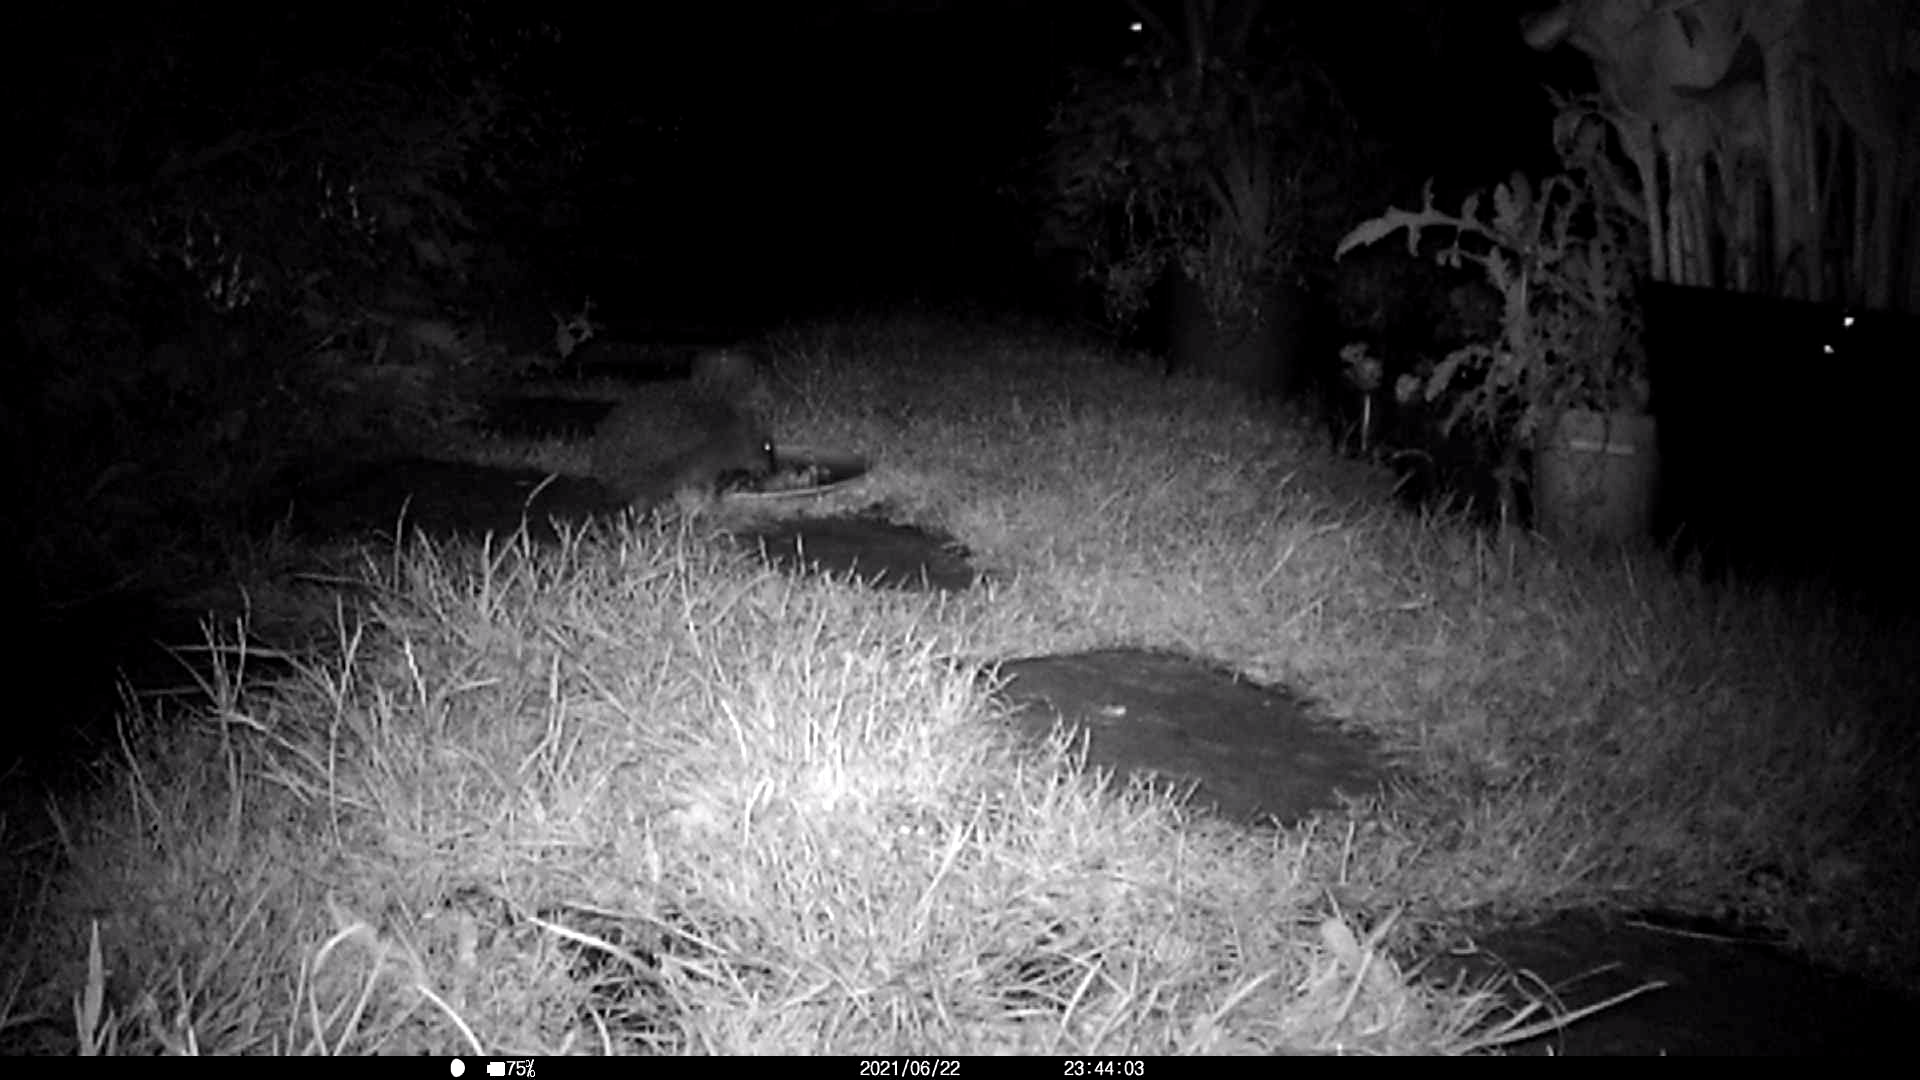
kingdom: Animalia
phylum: Chordata
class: Mammalia
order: Erinaceomorpha
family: Erinaceidae
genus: Erinaceus
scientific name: Erinaceus europaeus
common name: West european hedgehog
